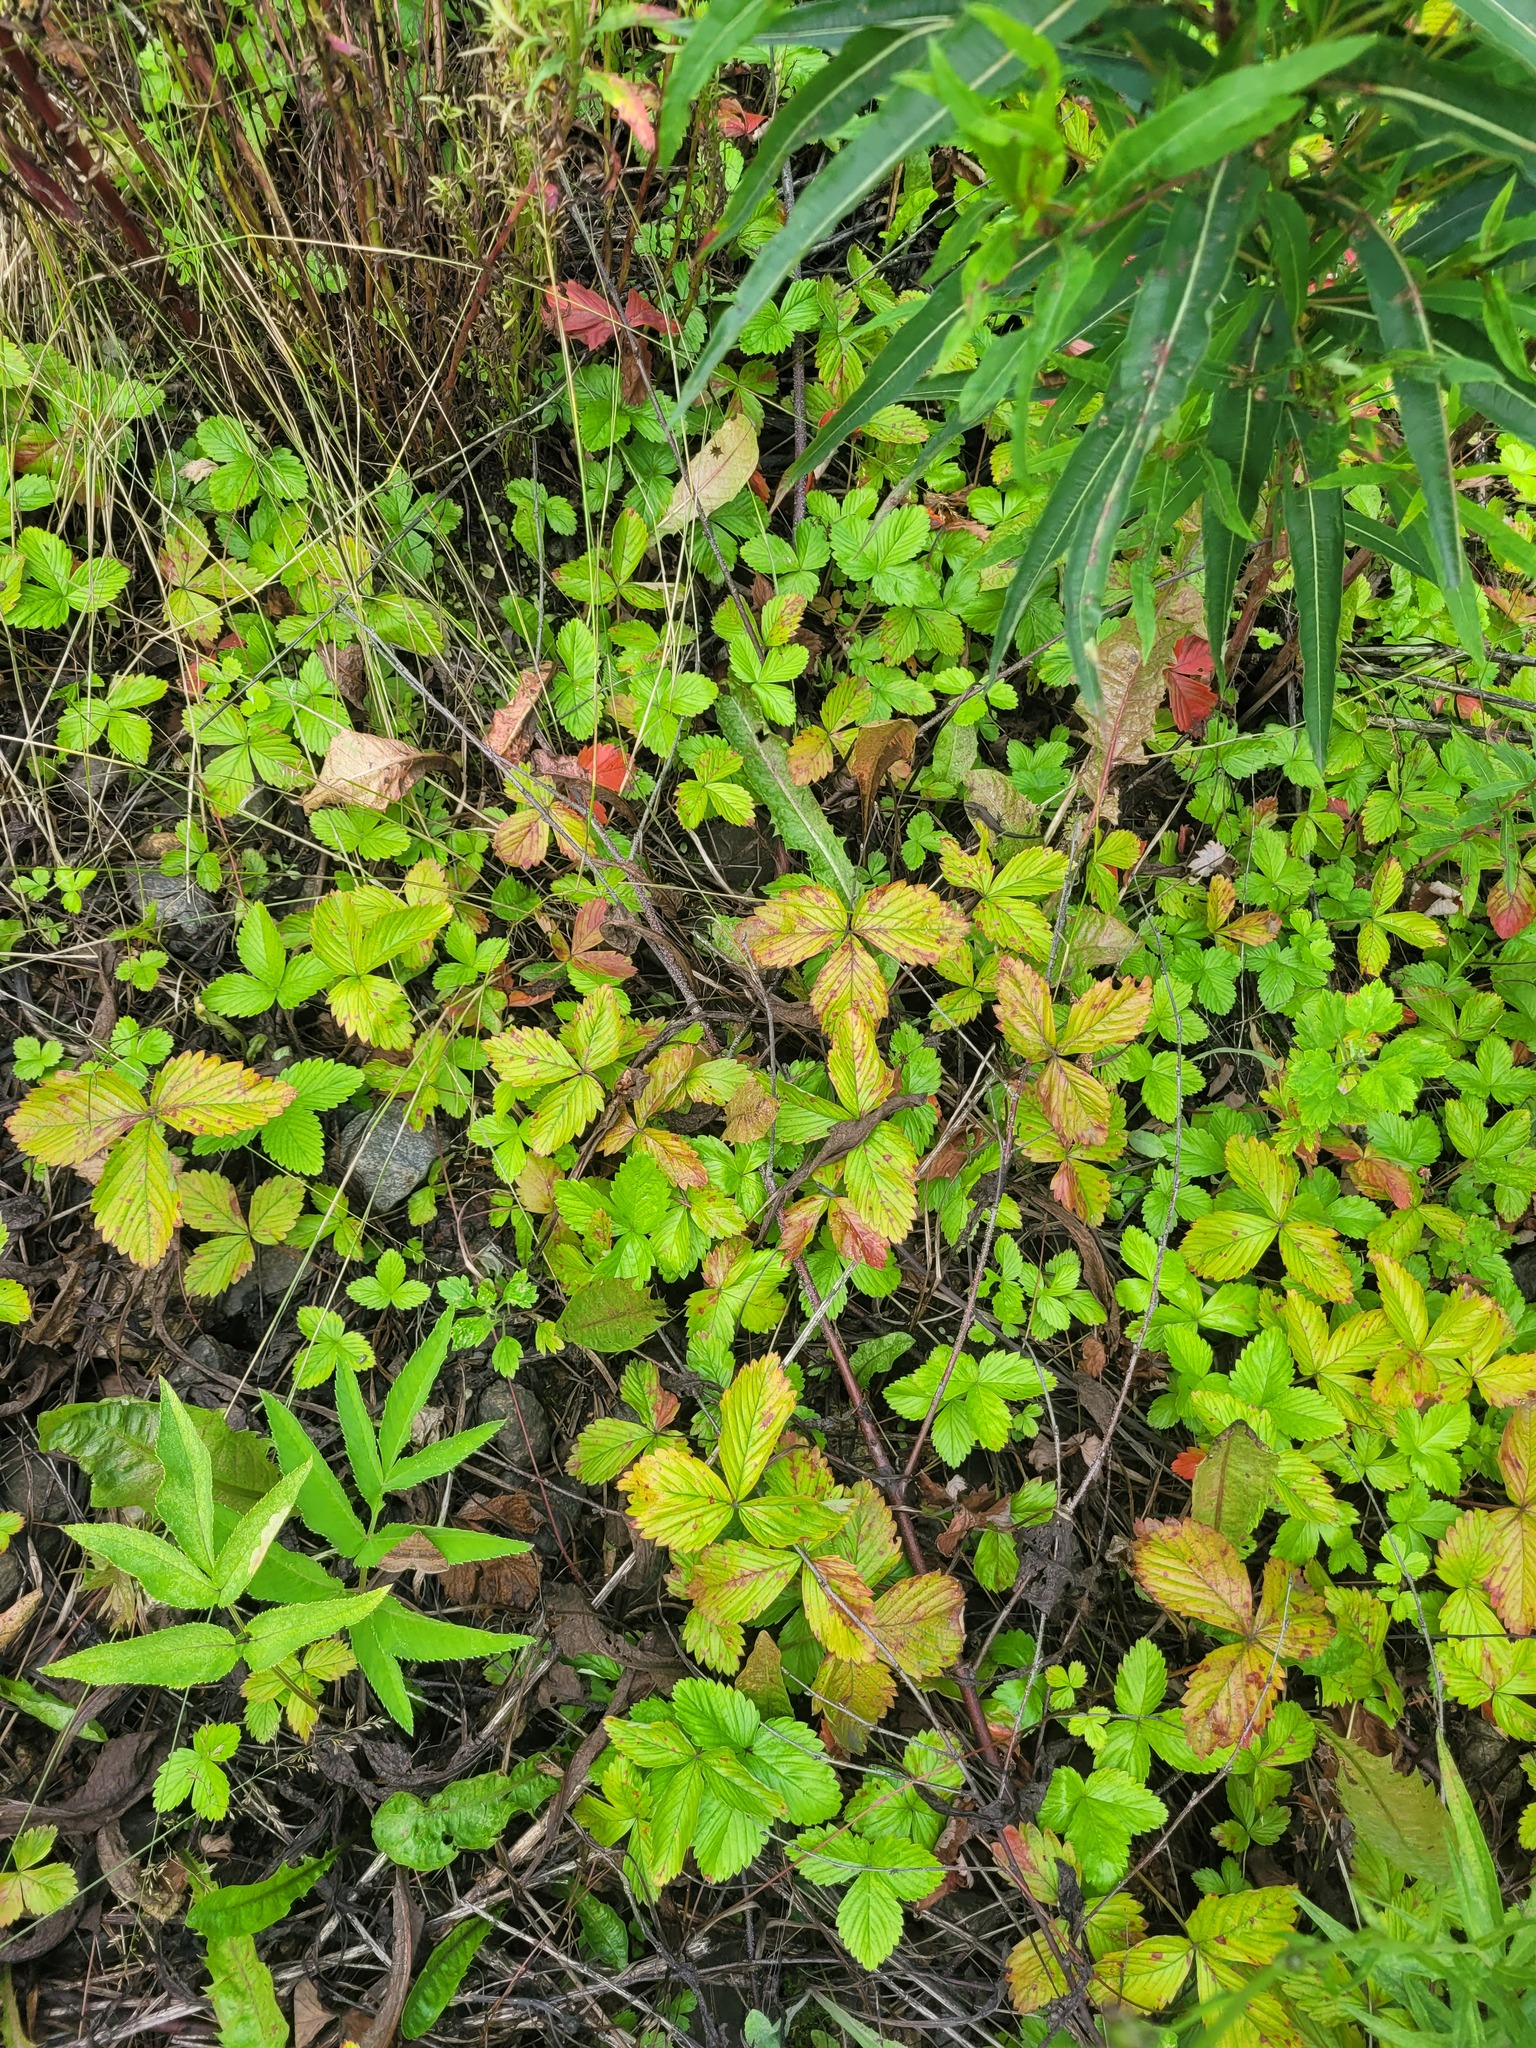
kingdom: Plantae
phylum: Tracheophyta
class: Magnoliopsida
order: Rosales
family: Rosaceae
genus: Fragaria
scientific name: Fragaria vesca
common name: Wild strawberry
